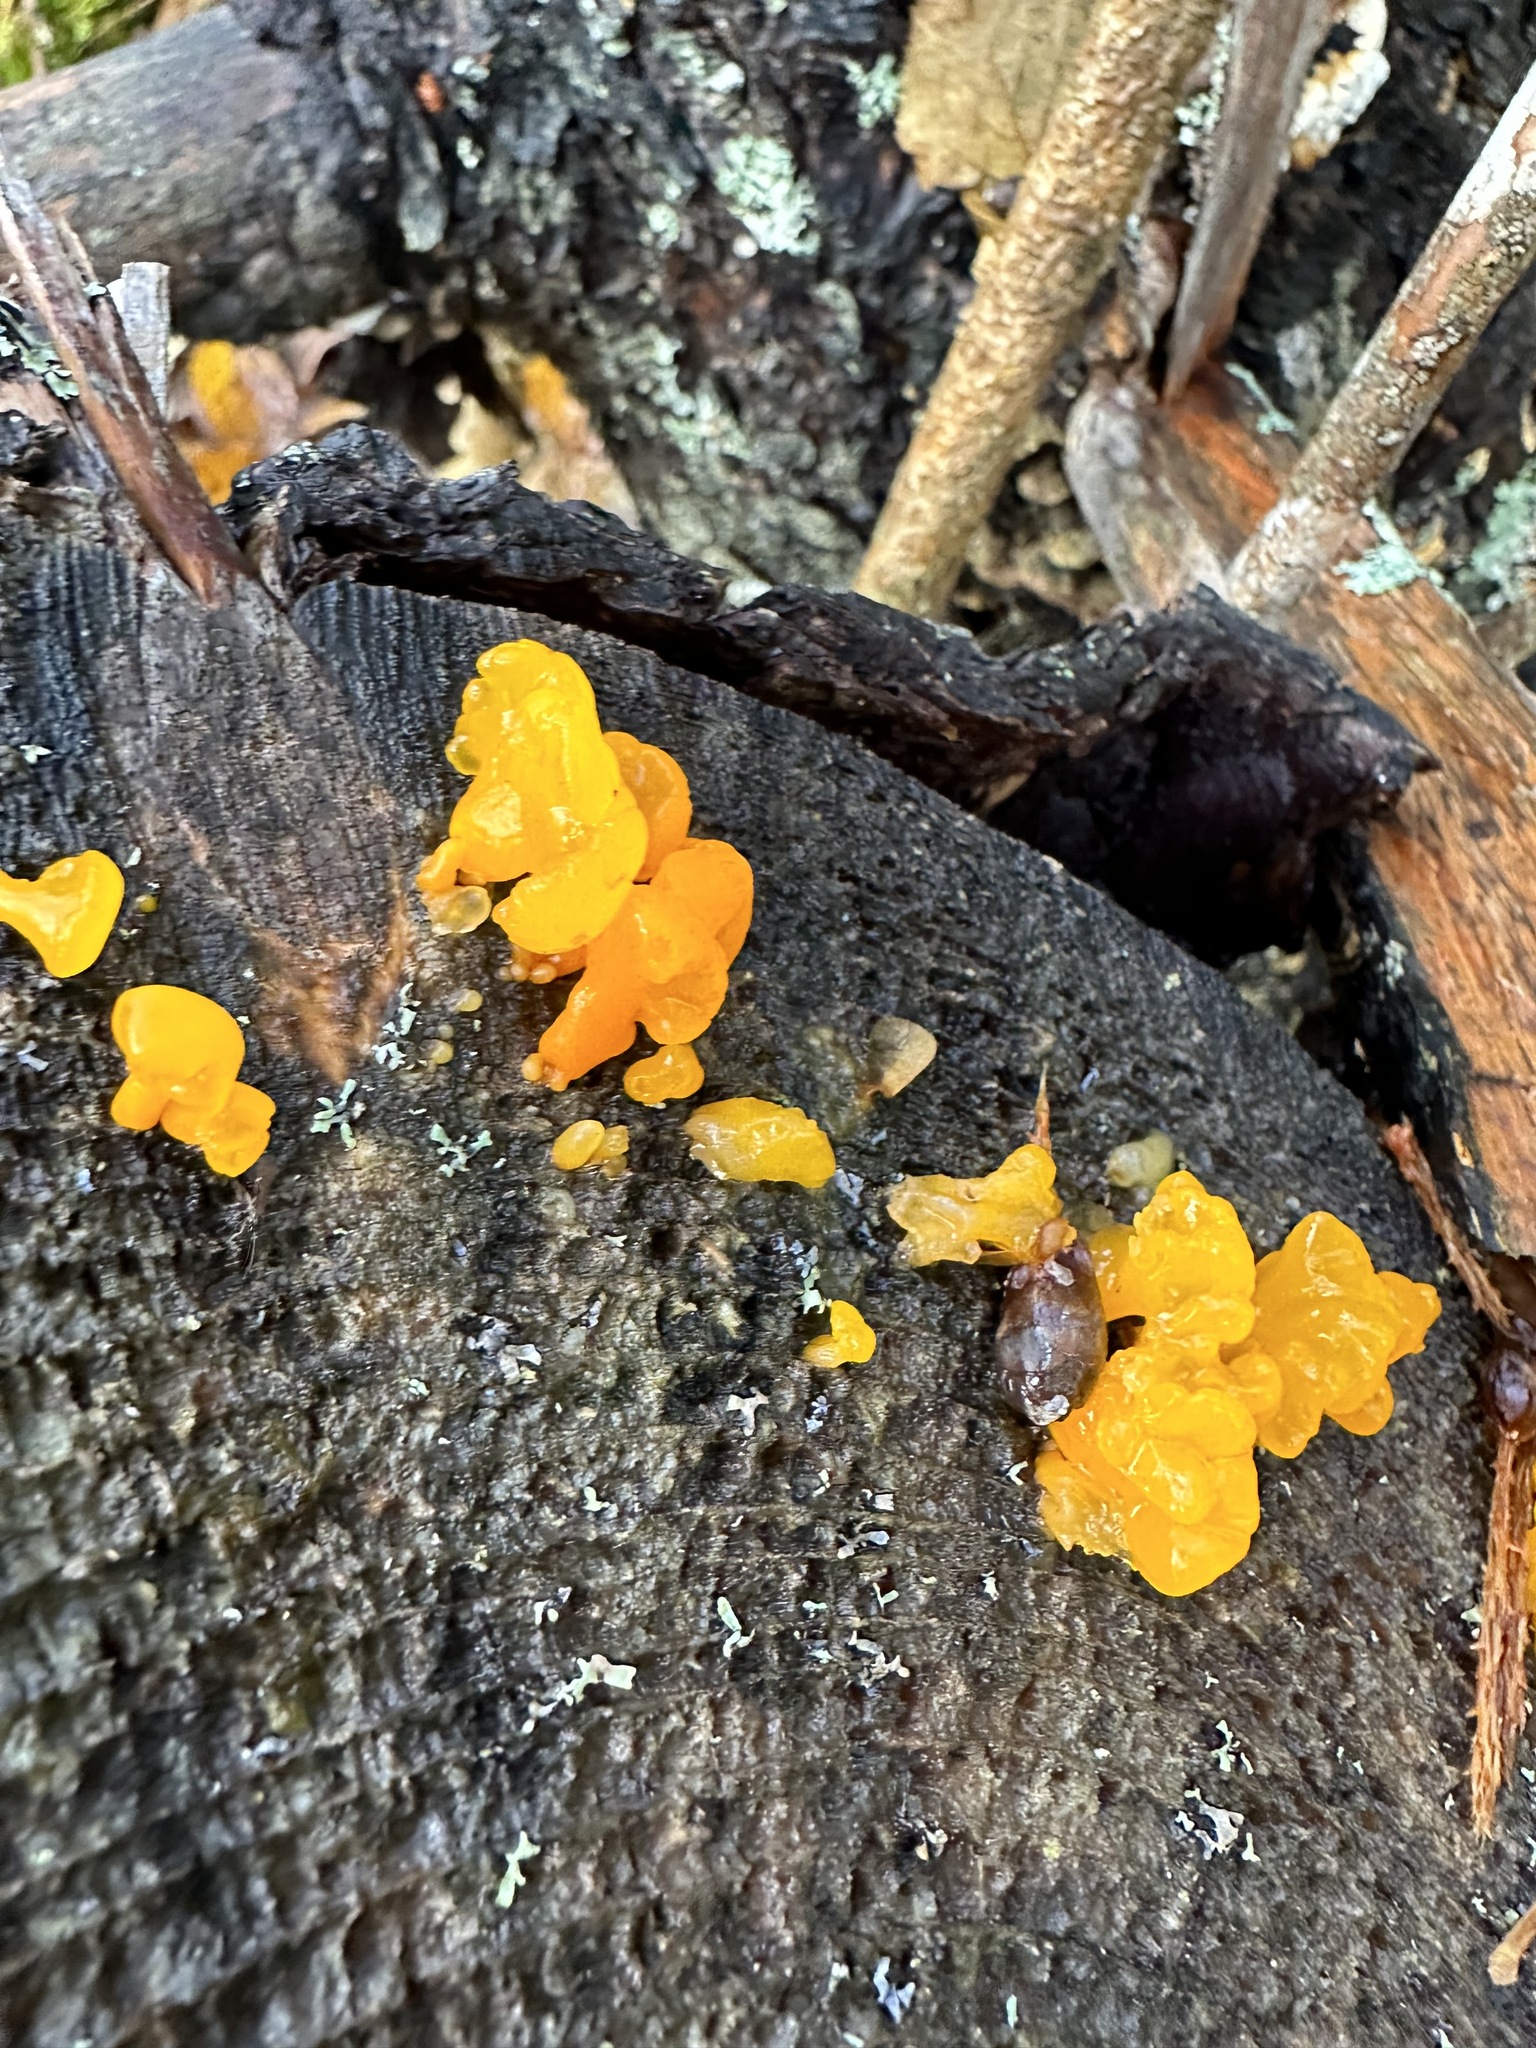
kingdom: Fungi
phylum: Basidiomycota
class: Dacrymycetes
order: Dacrymycetales
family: Dacrymycetaceae
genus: Dacrymyces
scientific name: Dacrymyces chrysospermus
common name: Orange jelly spot
